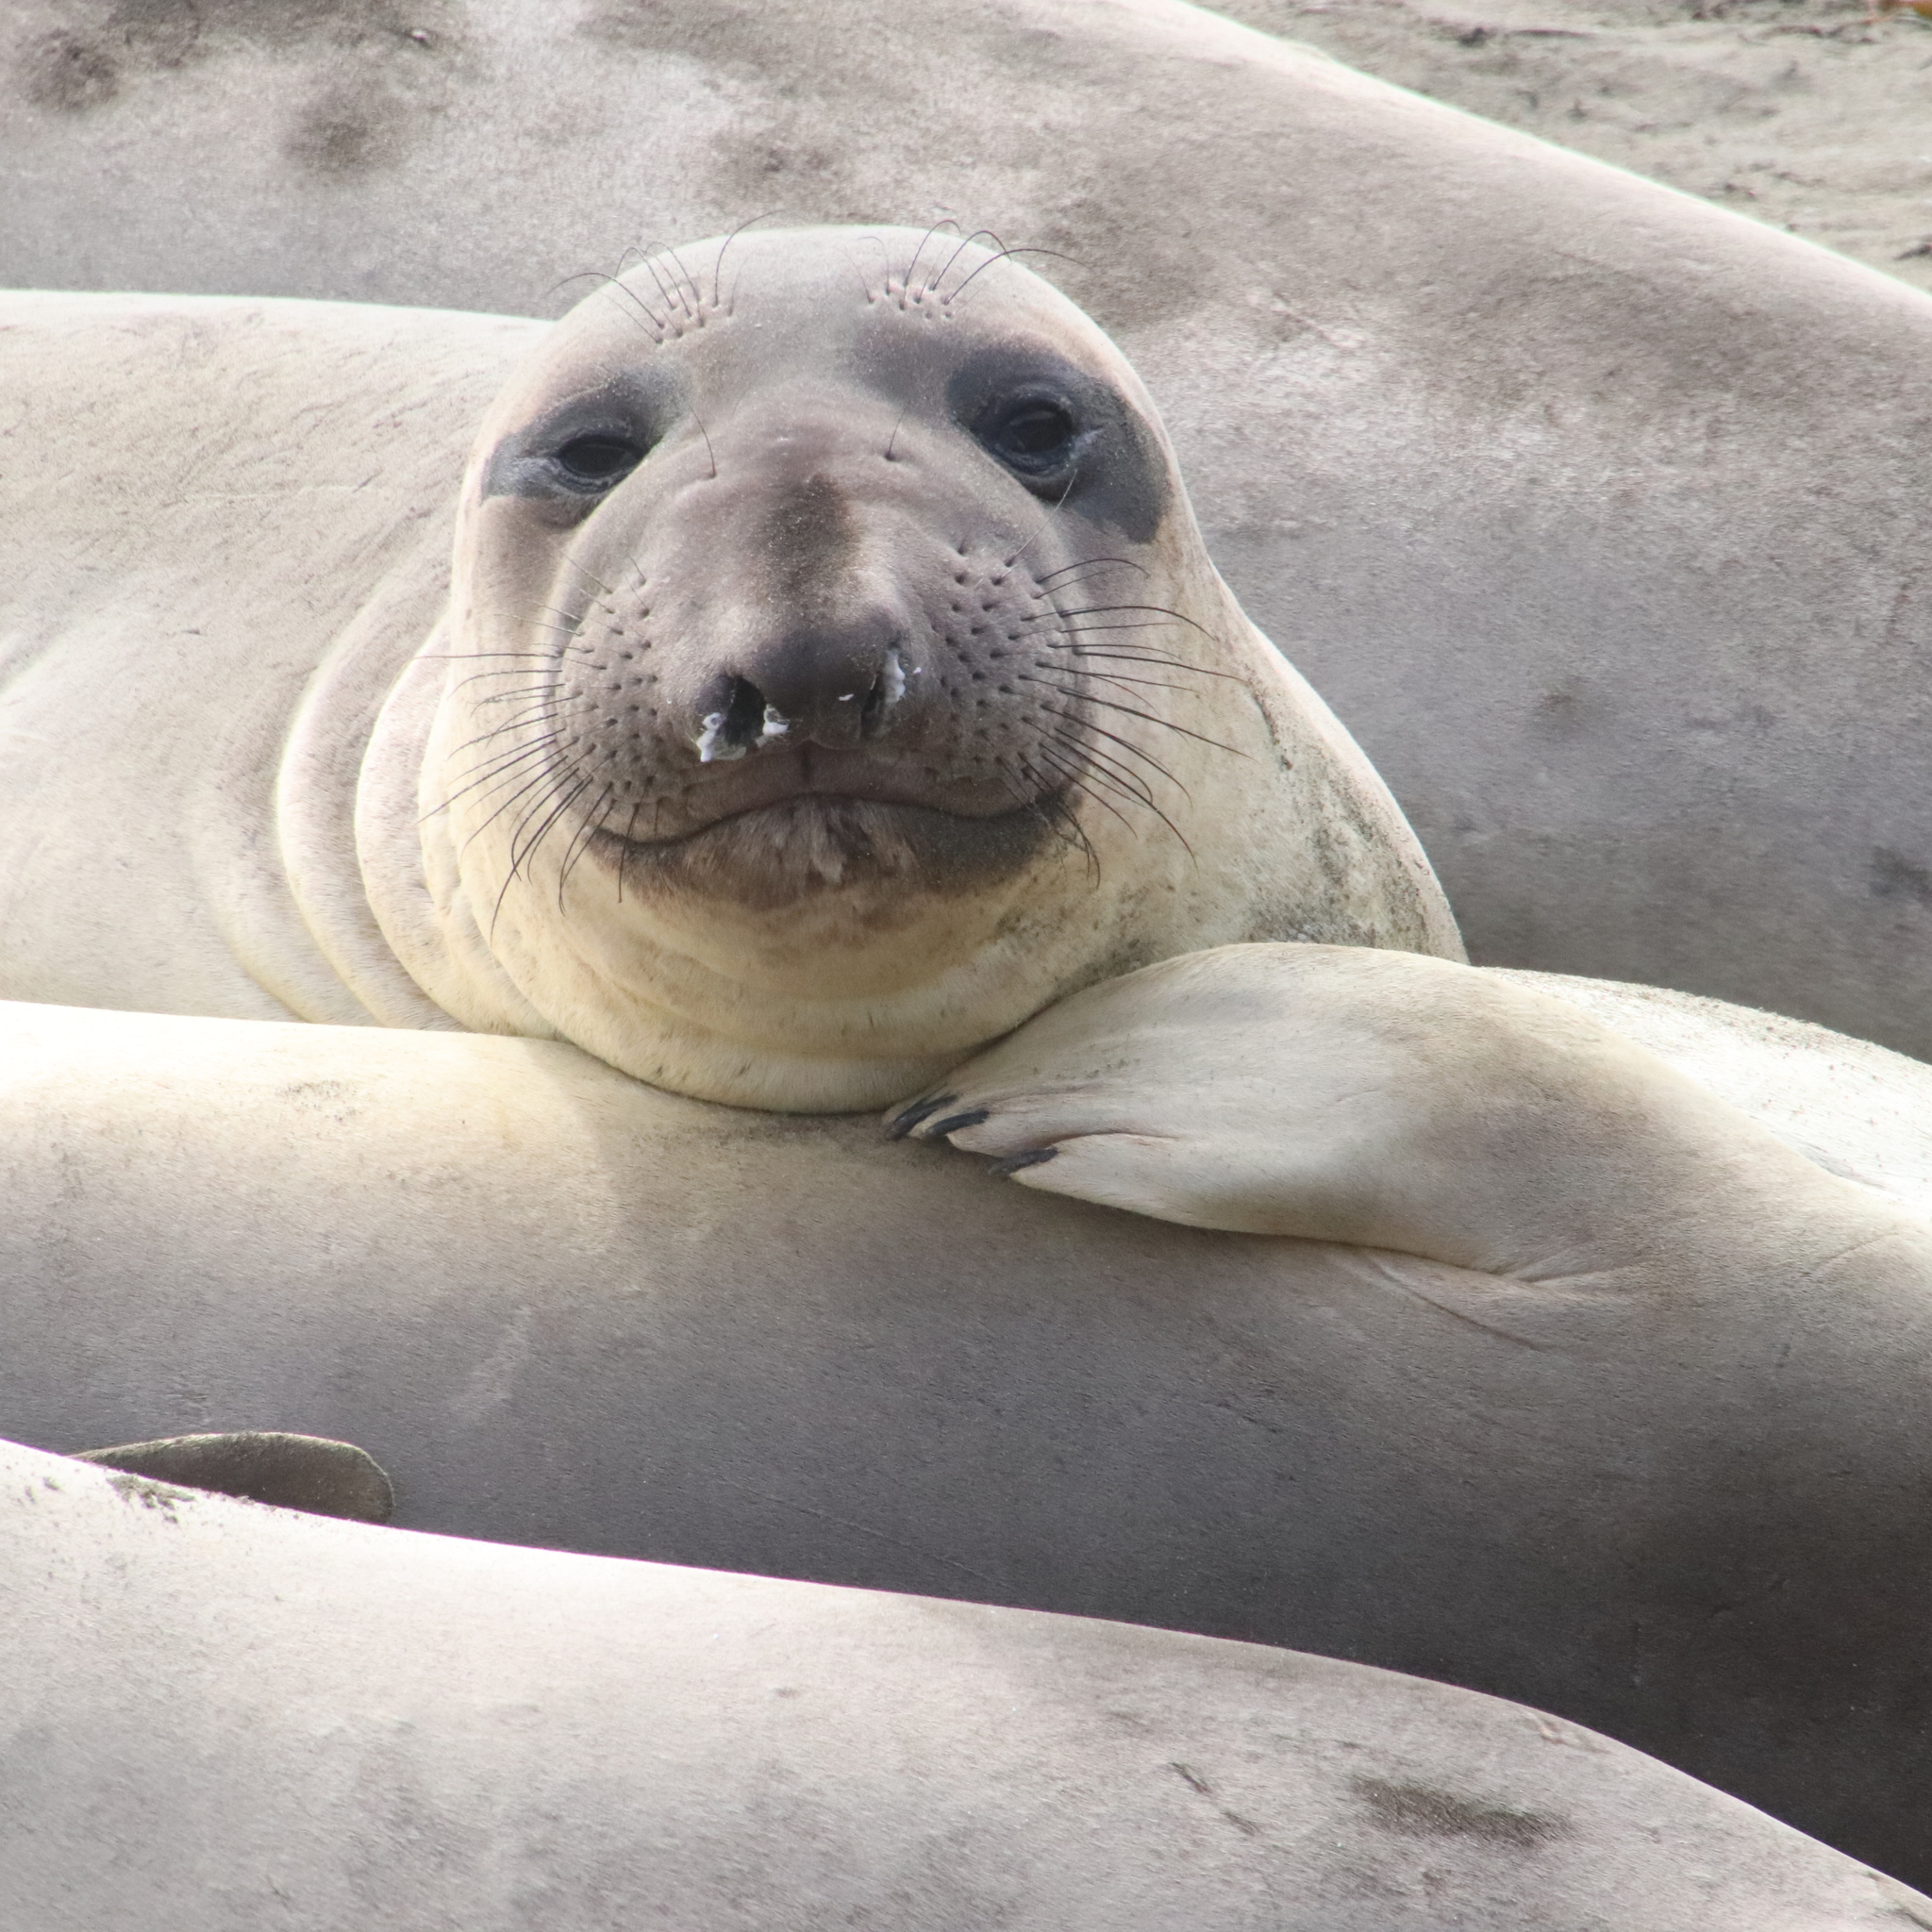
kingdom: Animalia
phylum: Chordata
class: Mammalia
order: Carnivora
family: Phocidae
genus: Mirounga
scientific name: Mirounga angustirostris
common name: Northern elephant seal
